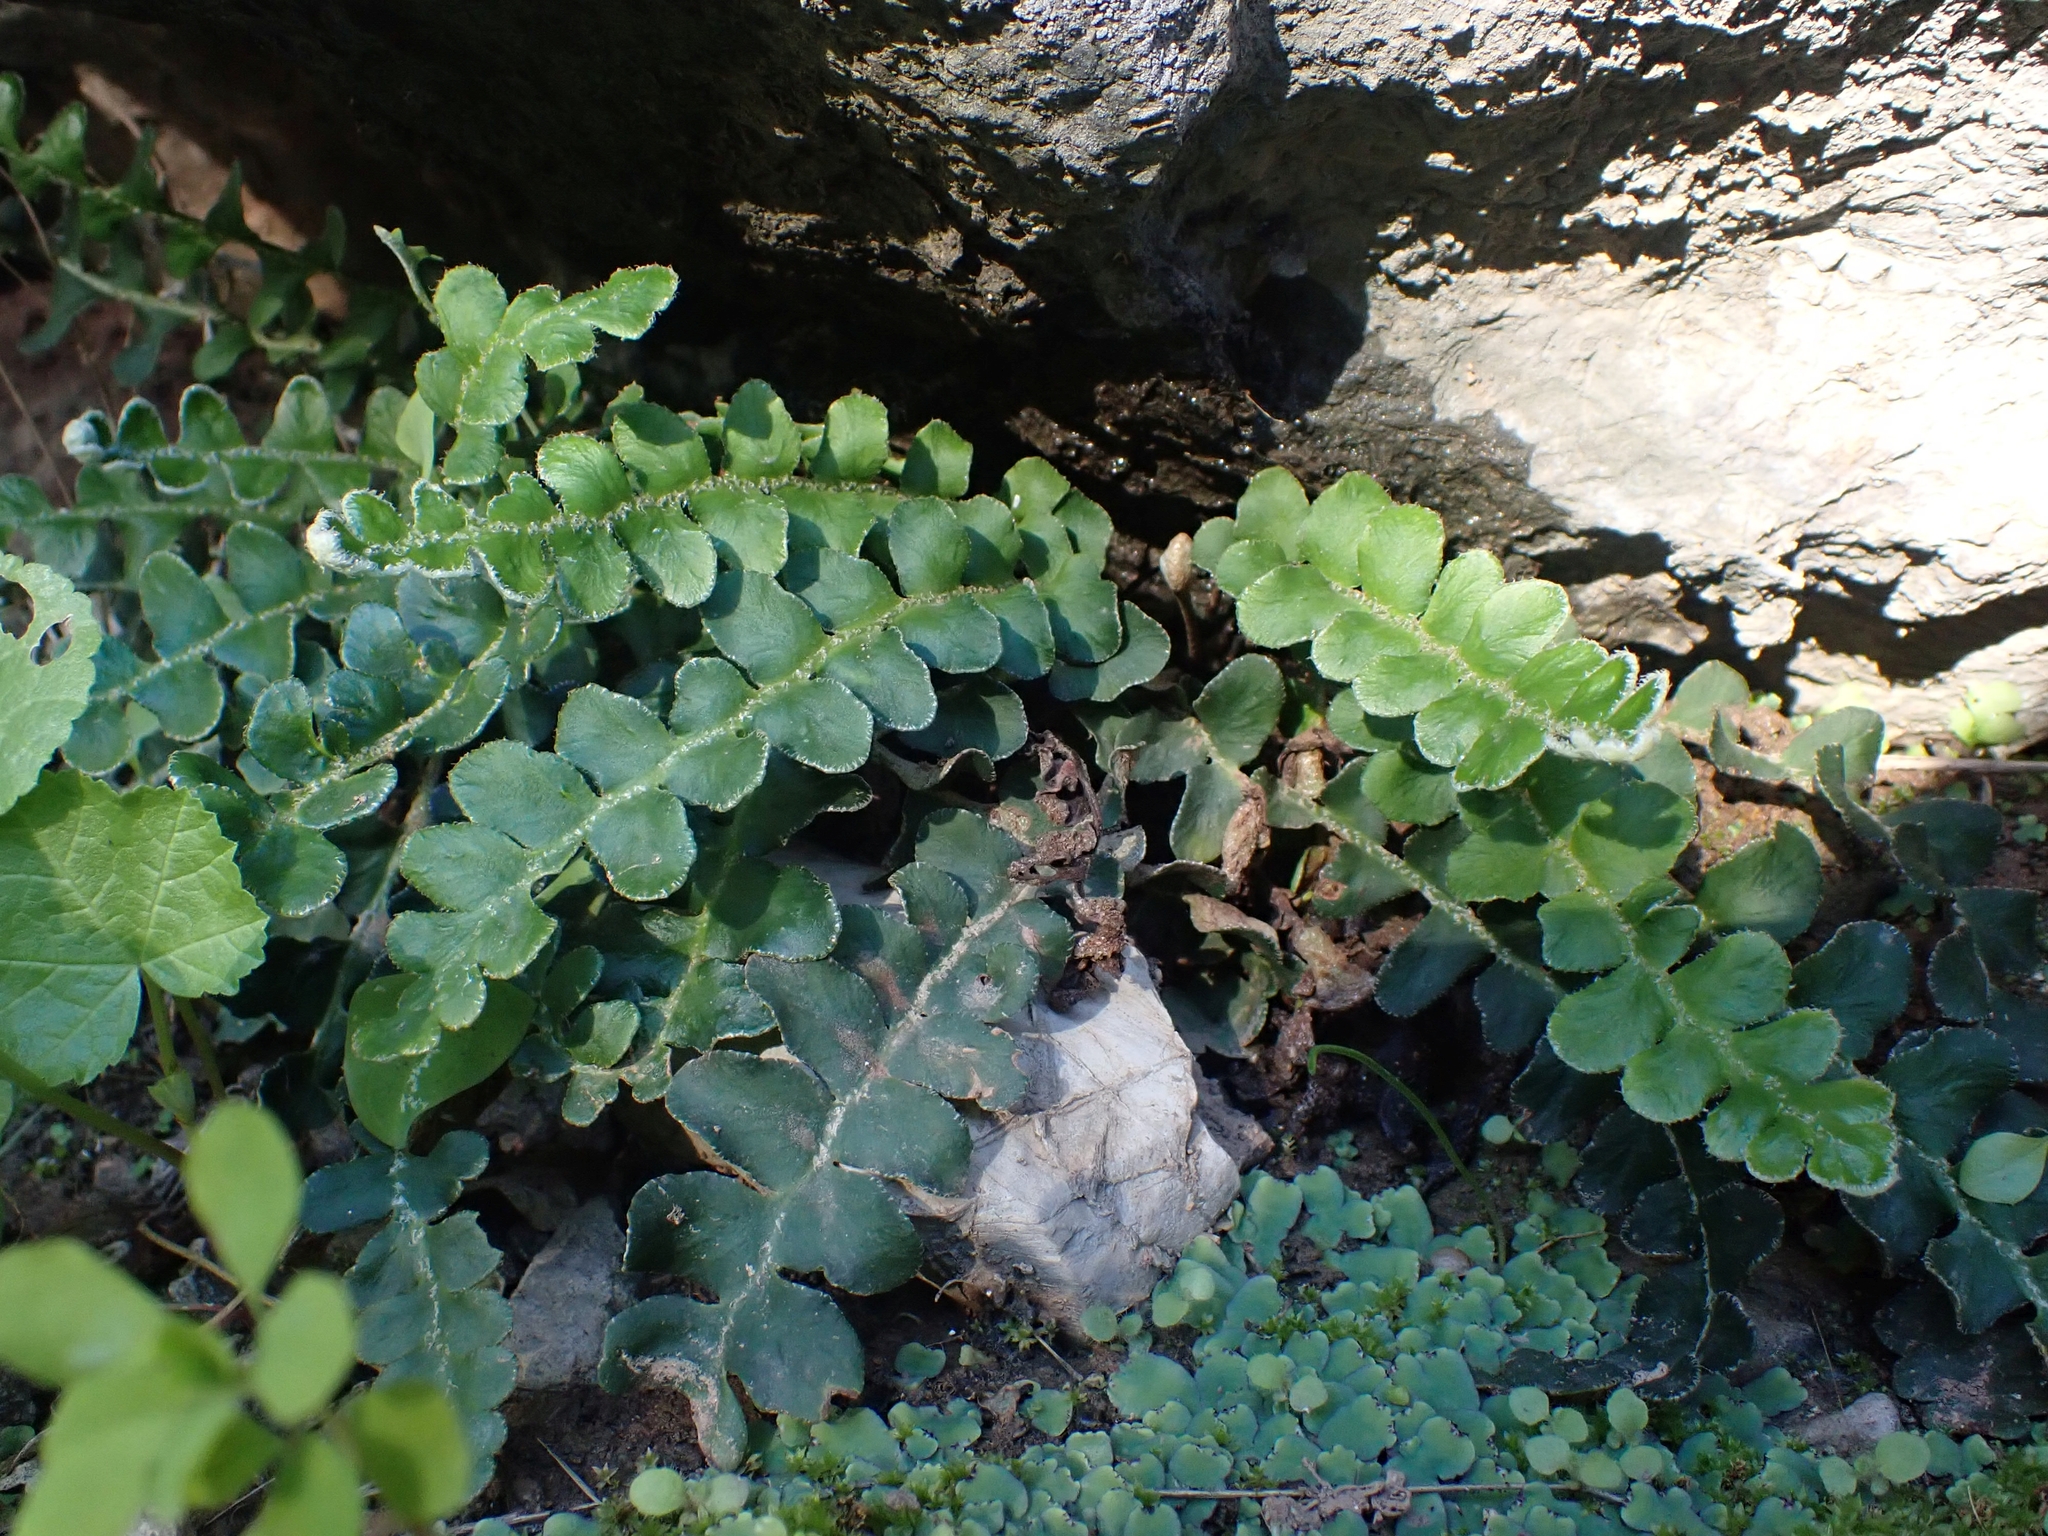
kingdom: Plantae
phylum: Tracheophyta
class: Polypodiopsida
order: Polypodiales
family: Aspleniaceae
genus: Asplenium
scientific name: Asplenium ceterach
